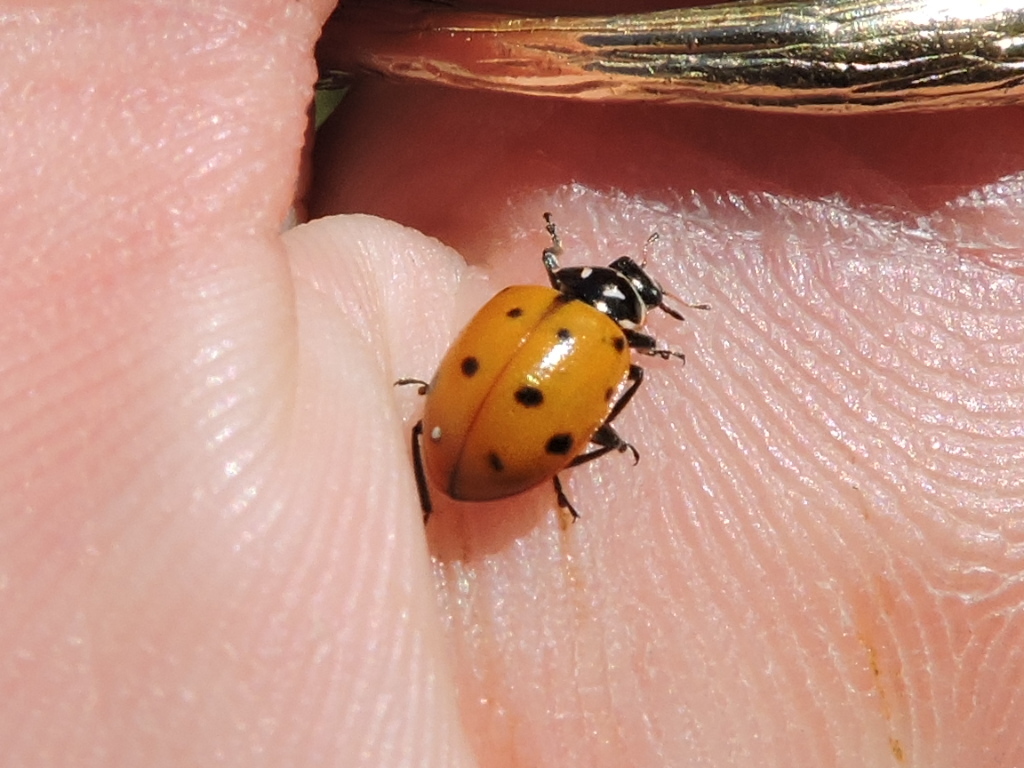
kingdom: Animalia
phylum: Arthropoda
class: Insecta
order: Coleoptera
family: Coccinellidae
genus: Hippodamia
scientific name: Hippodamia convergens
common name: Convergent lady beetle
